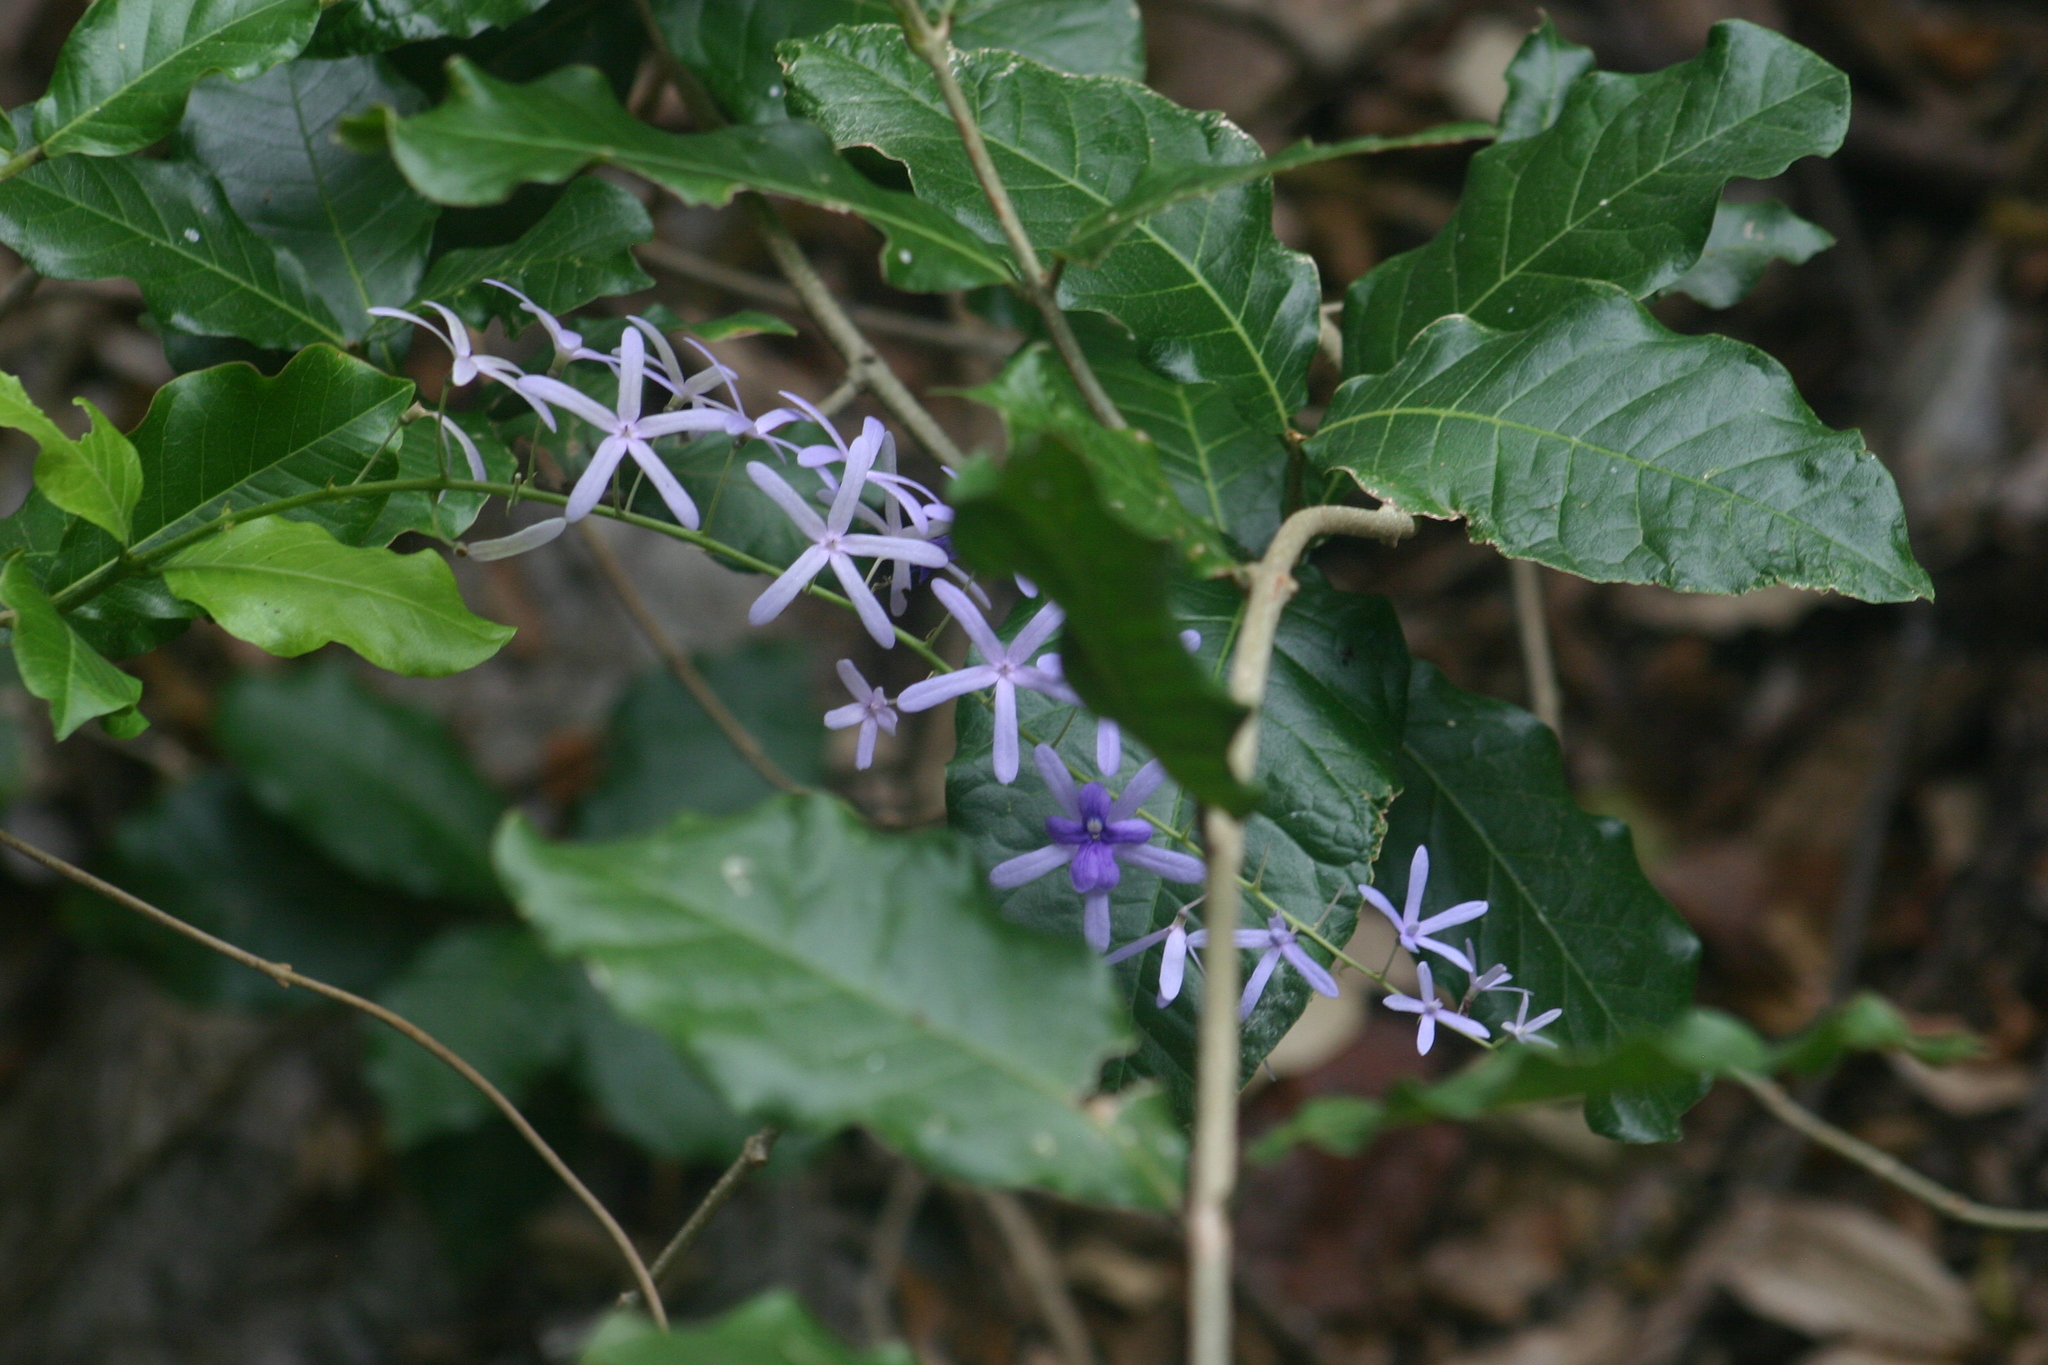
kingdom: Plantae
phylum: Tracheophyta
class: Magnoliopsida
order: Lamiales
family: Verbenaceae
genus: Petrea
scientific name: Petrea volubilis
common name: Queen's-wreath
